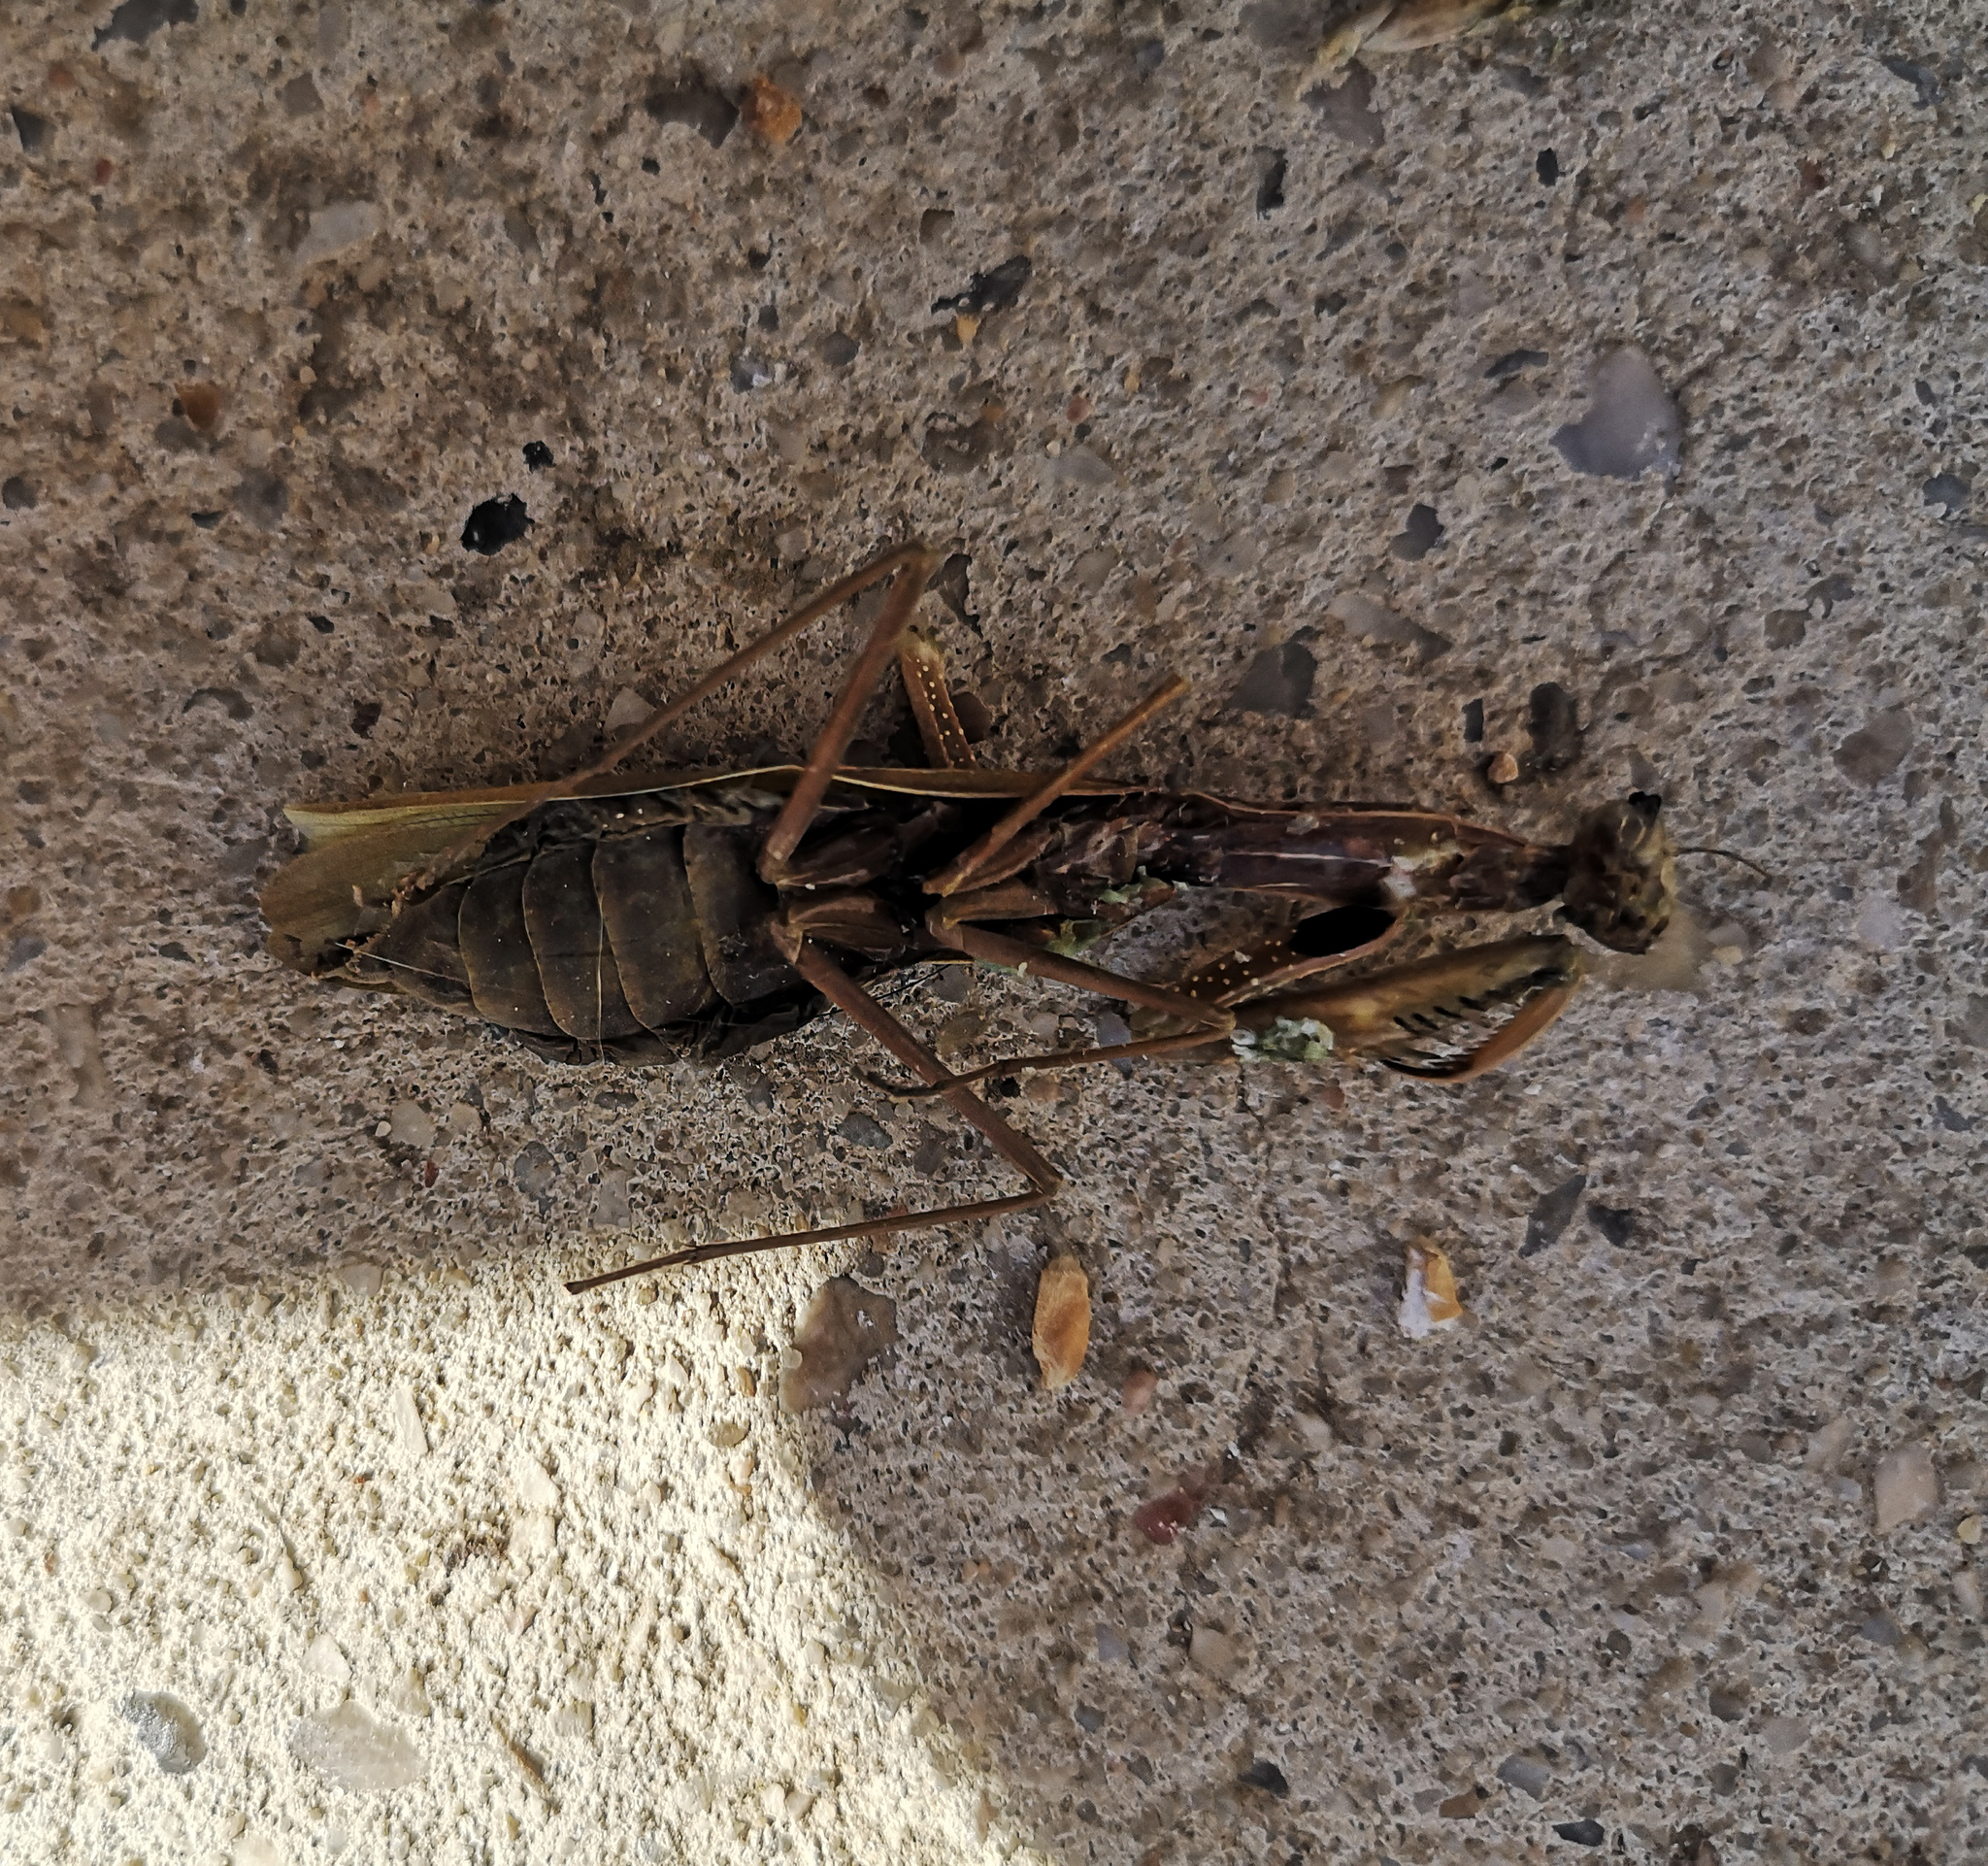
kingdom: Animalia
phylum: Arthropoda
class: Insecta
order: Mantodea
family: Mantidae
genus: Mantis
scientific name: Mantis religiosa
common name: Praying mantis
